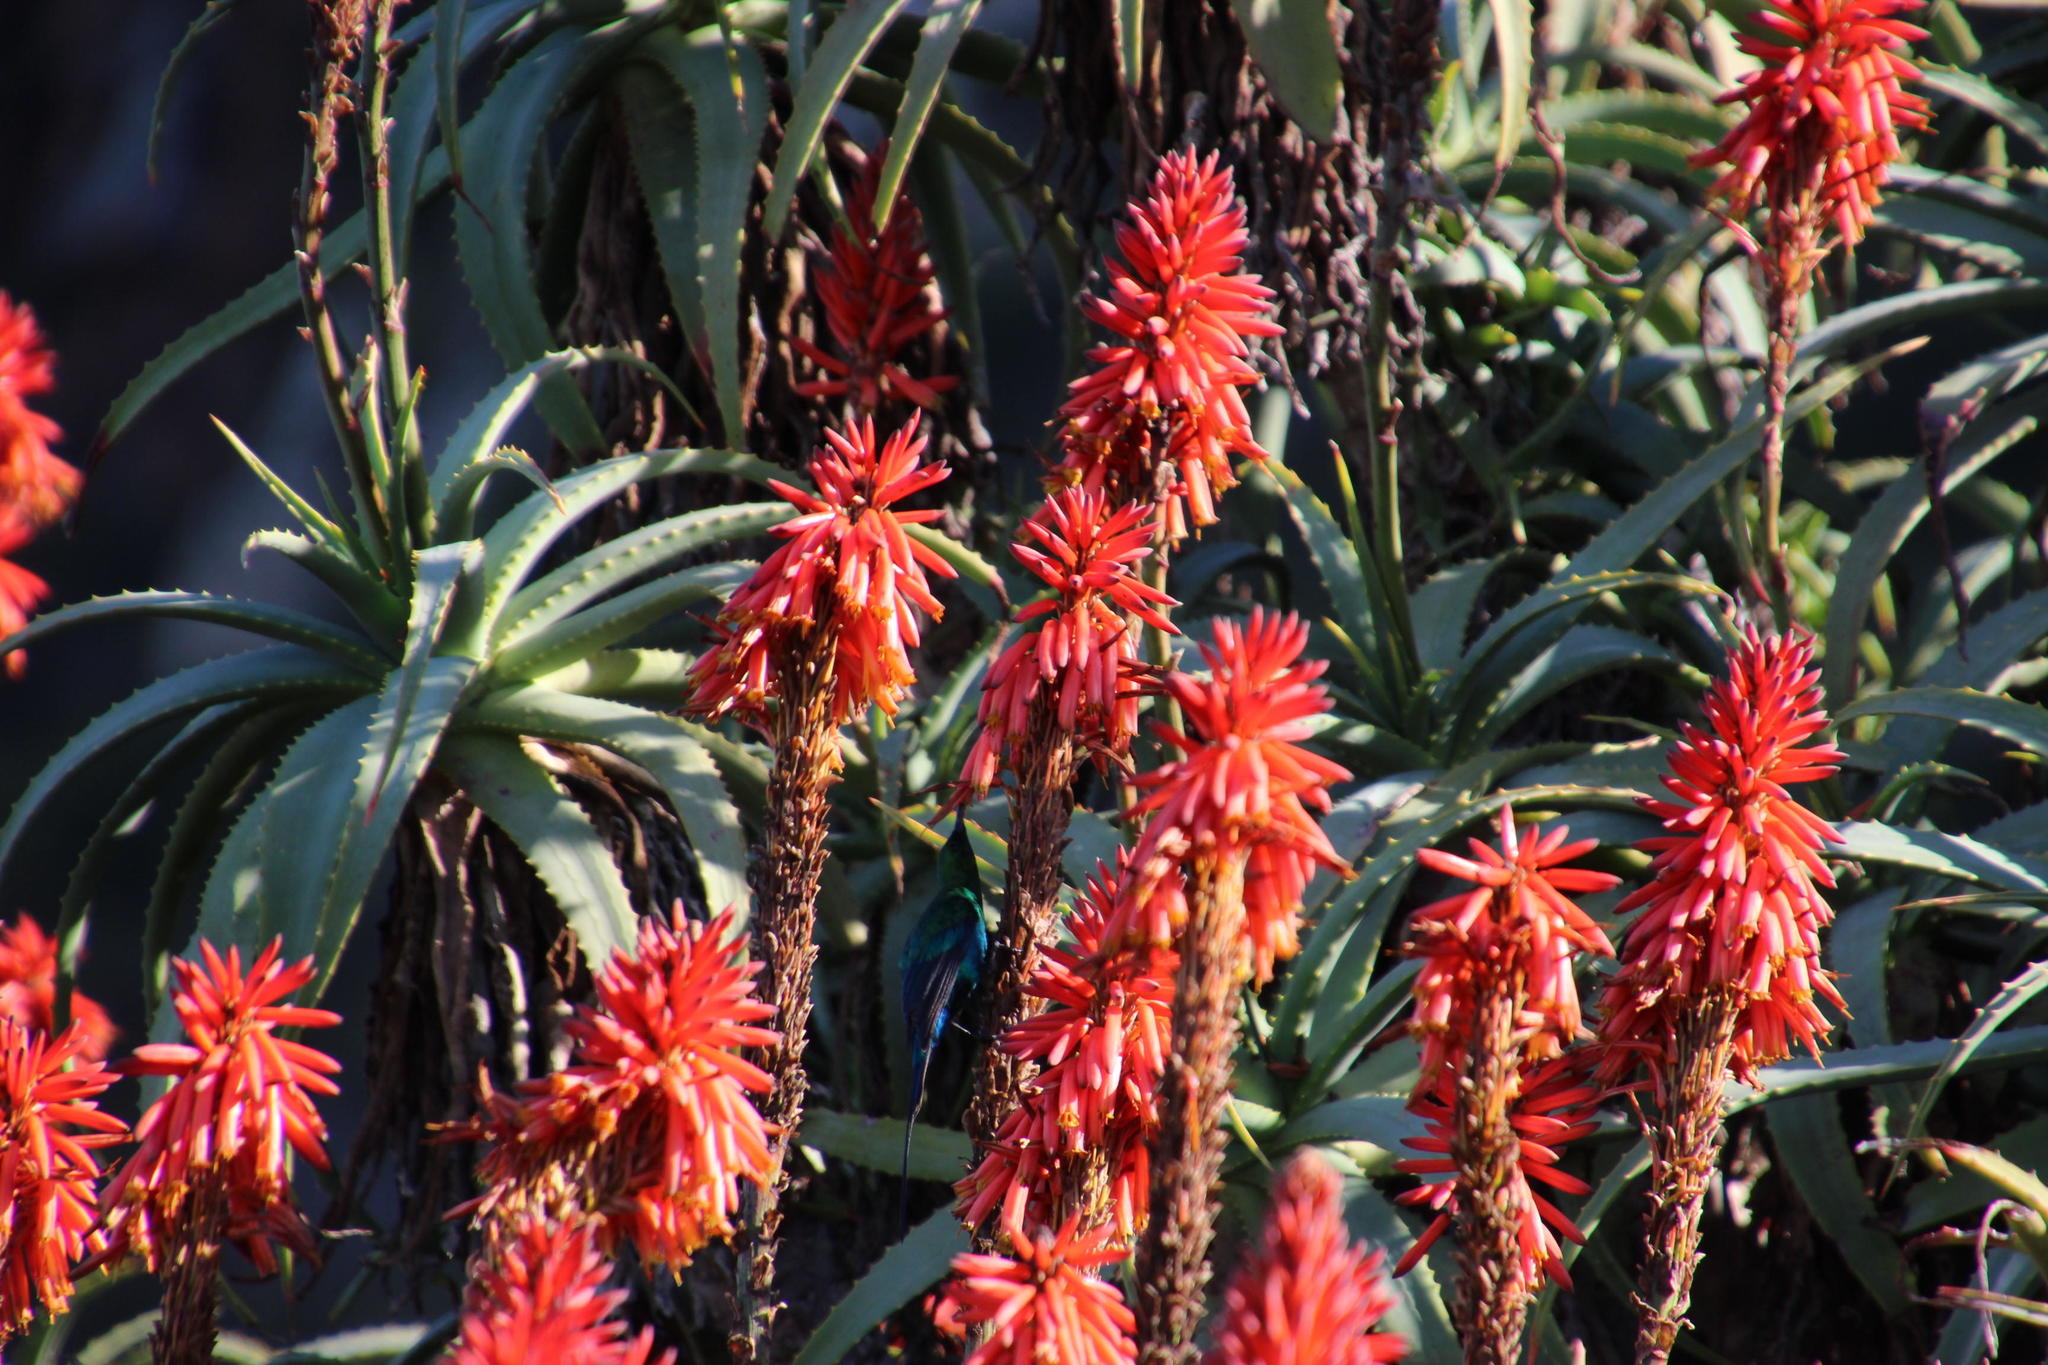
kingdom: Plantae
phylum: Tracheophyta
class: Liliopsida
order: Asparagales
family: Asphodelaceae
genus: Aloe
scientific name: Aloe arborescens
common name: Candelabra aloe
